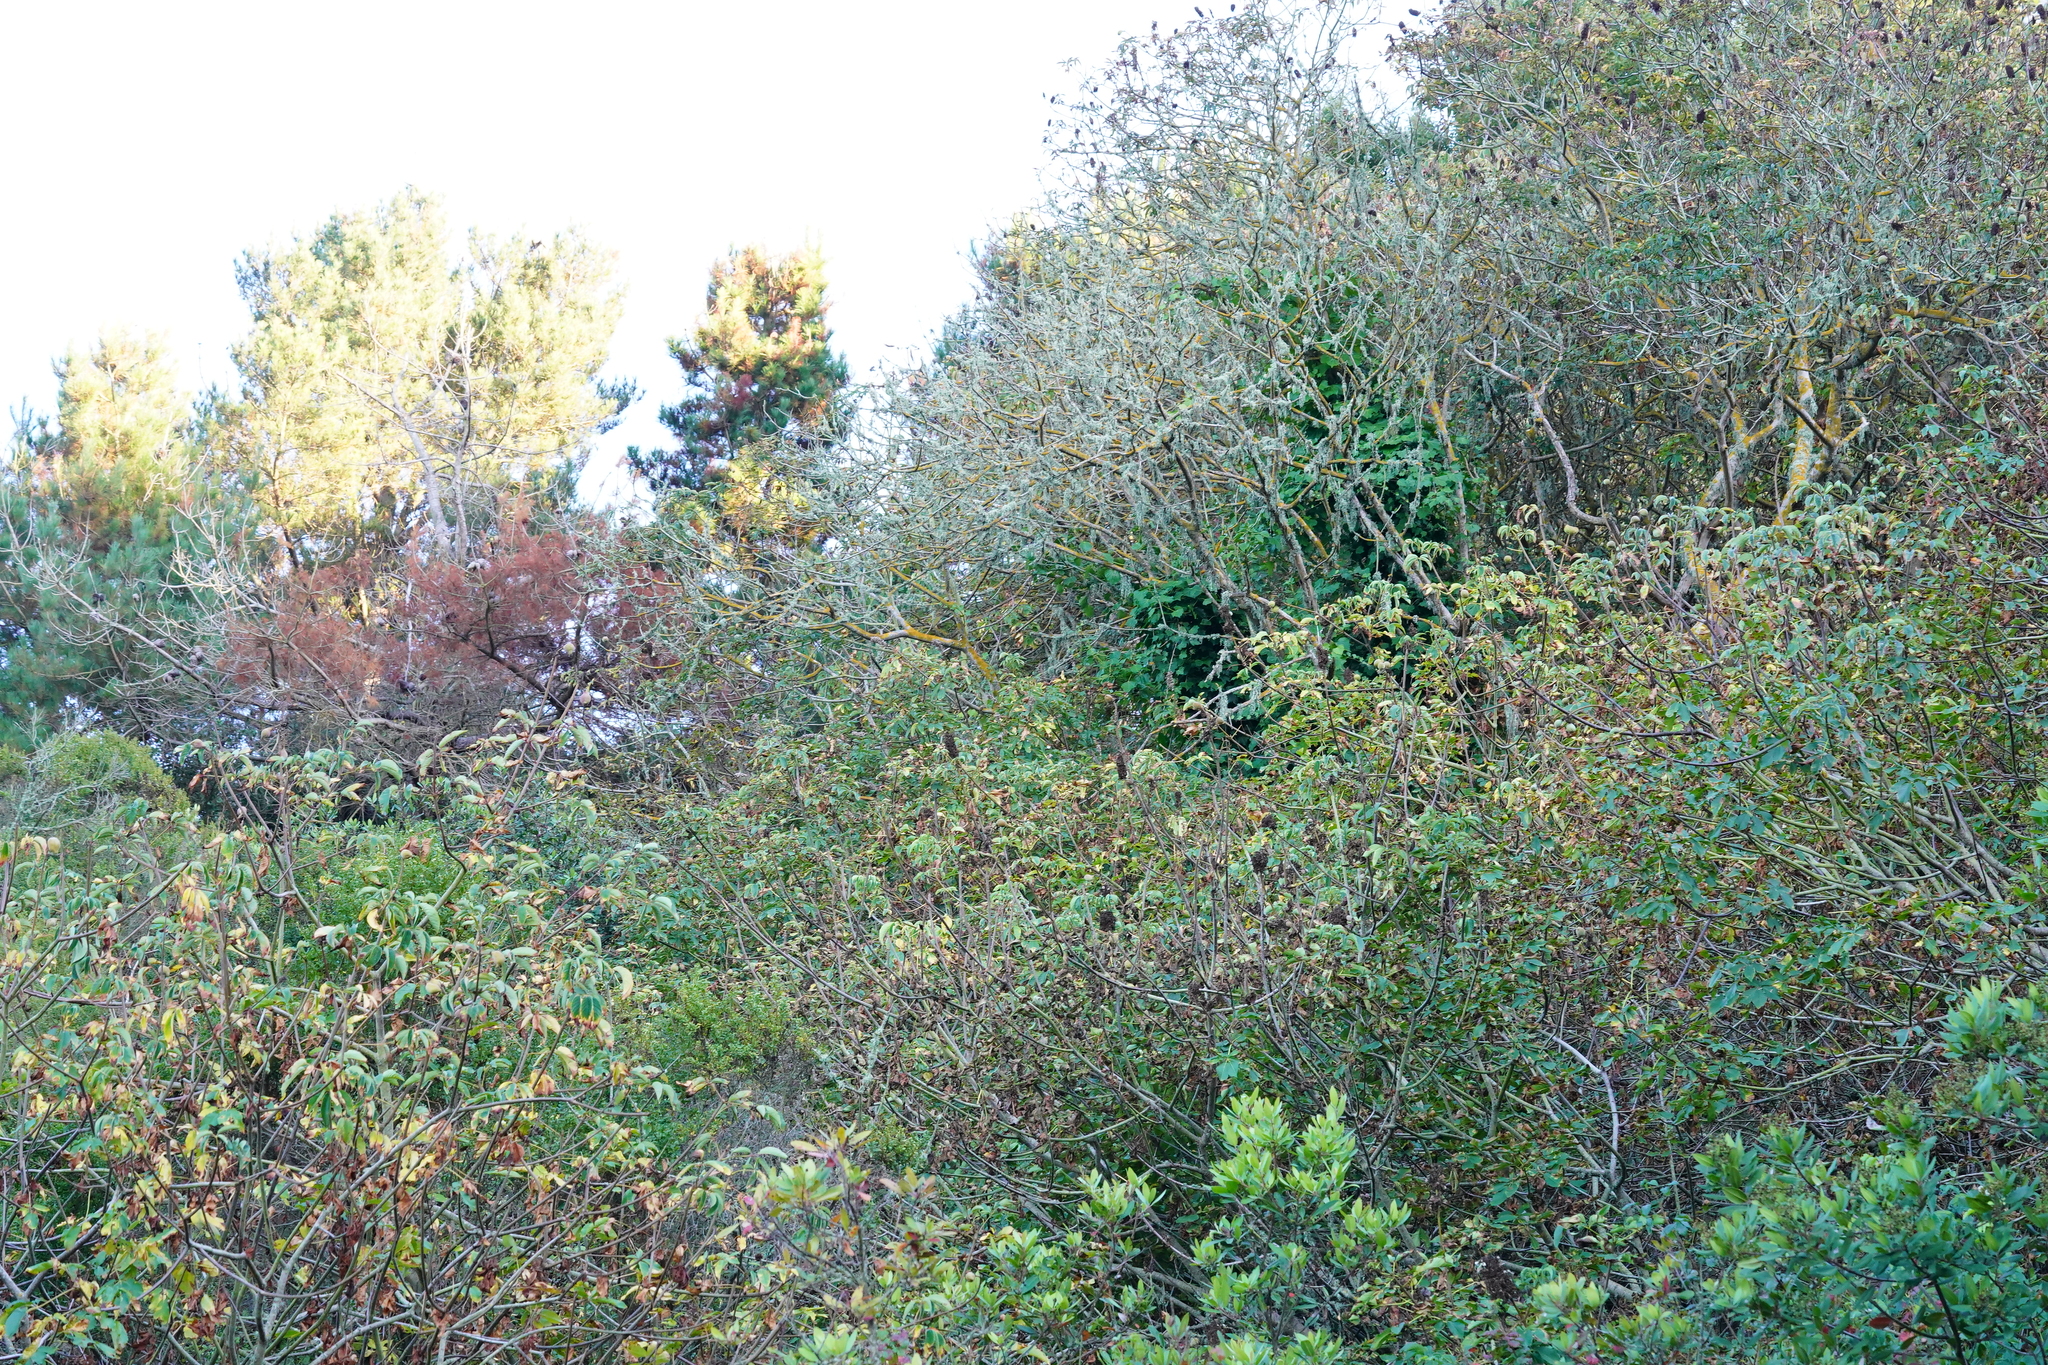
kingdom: Plantae
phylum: Tracheophyta
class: Magnoliopsida
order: Sapindales
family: Sapindaceae
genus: Aesculus
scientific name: Aesculus californica
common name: California buckeye
